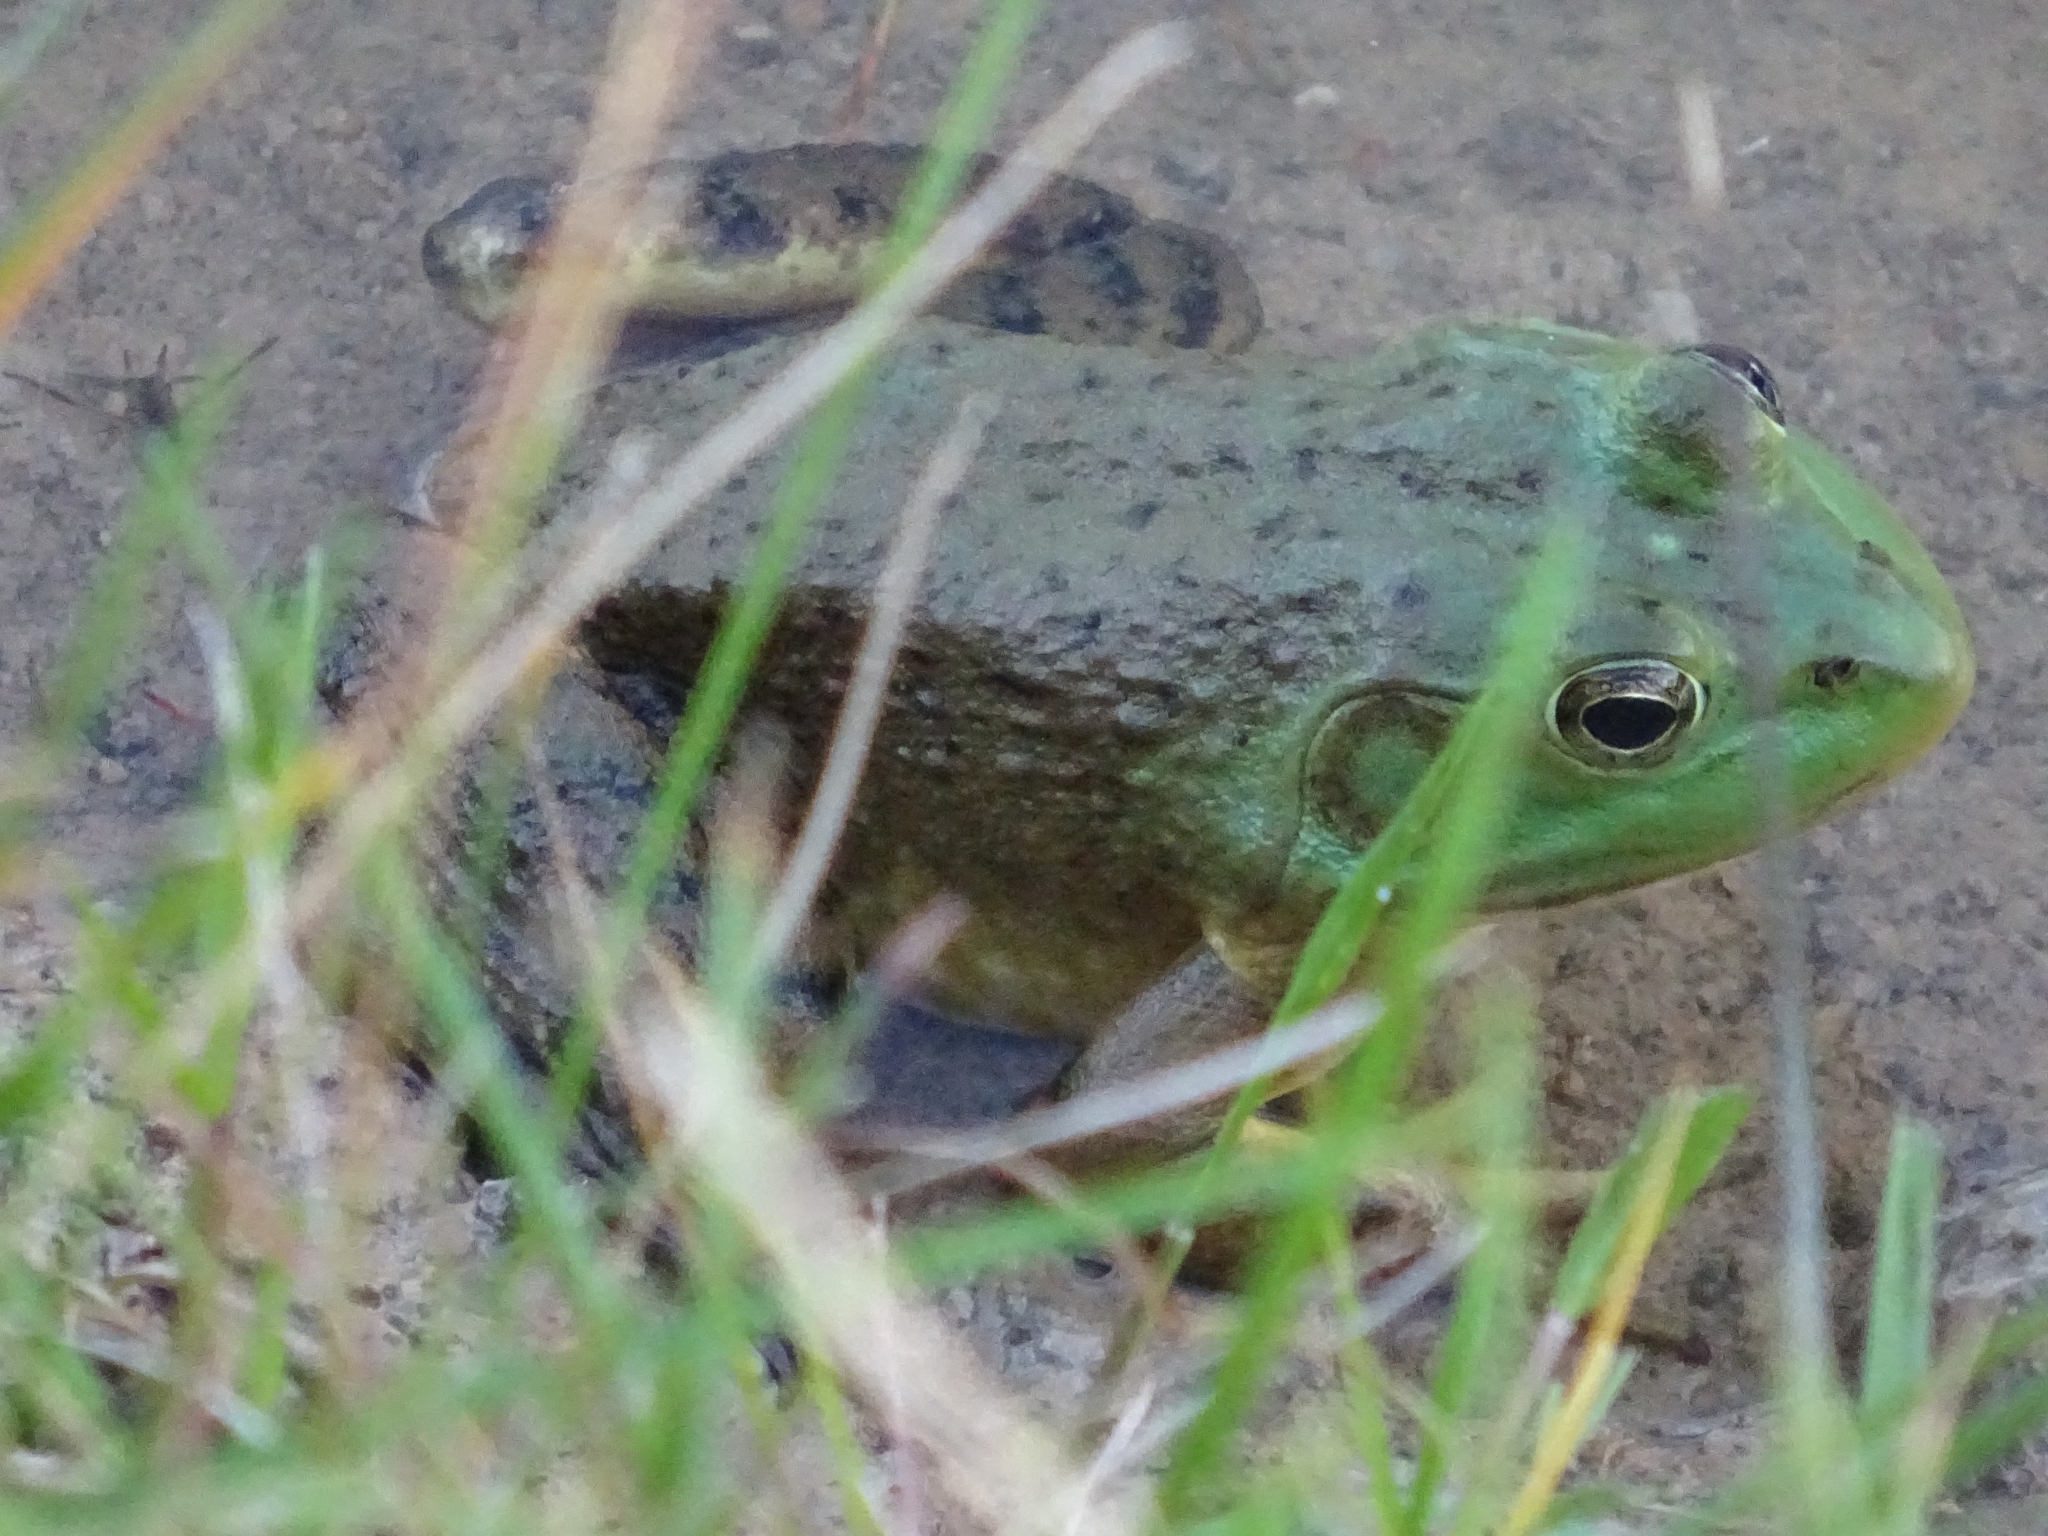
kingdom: Animalia
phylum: Chordata
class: Amphibia
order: Anura
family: Ranidae
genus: Lithobates
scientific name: Lithobates catesbeianus
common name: American bullfrog
